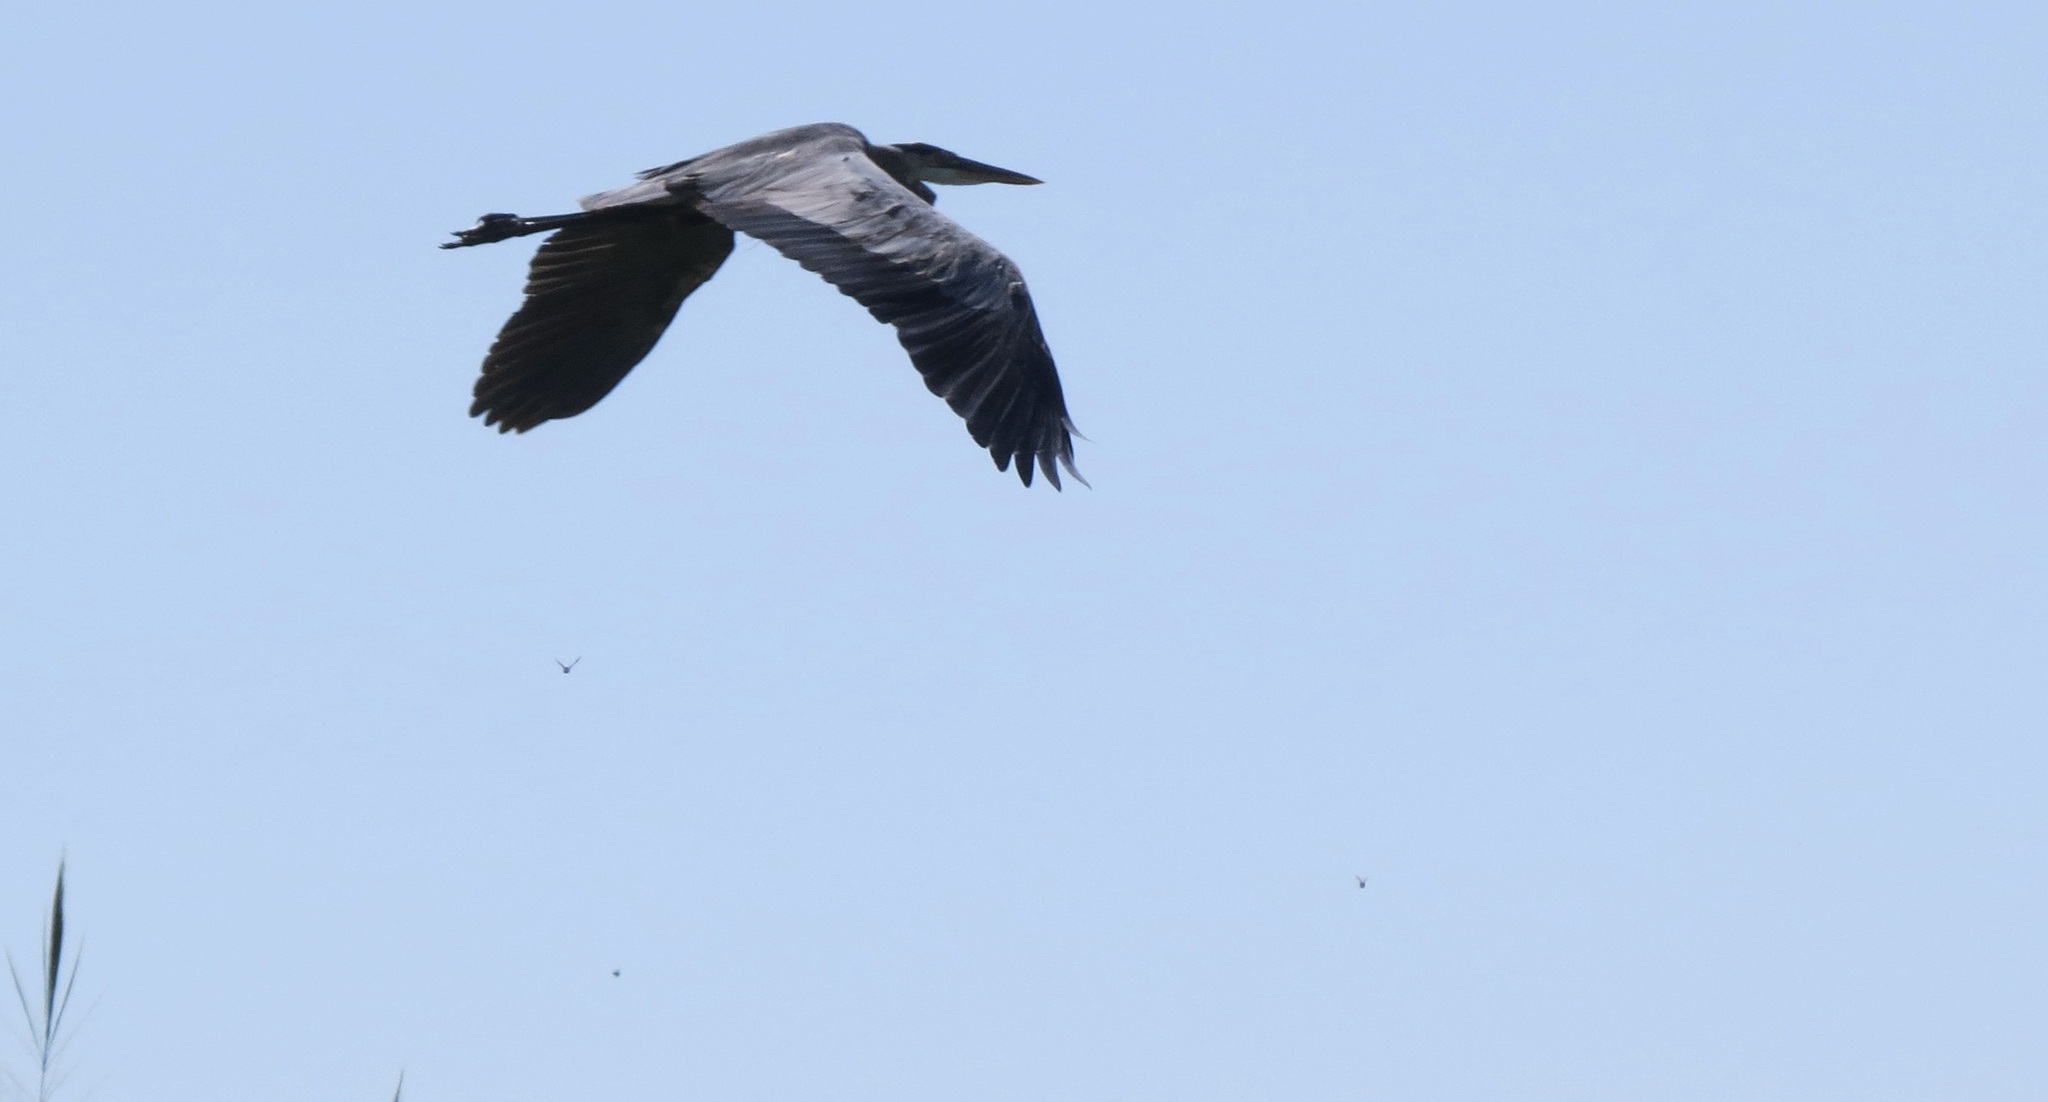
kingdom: Animalia
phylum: Chordata
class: Aves
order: Pelecaniformes
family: Ardeidae
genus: Ardea
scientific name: Ardea herodias
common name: Great blue heron
